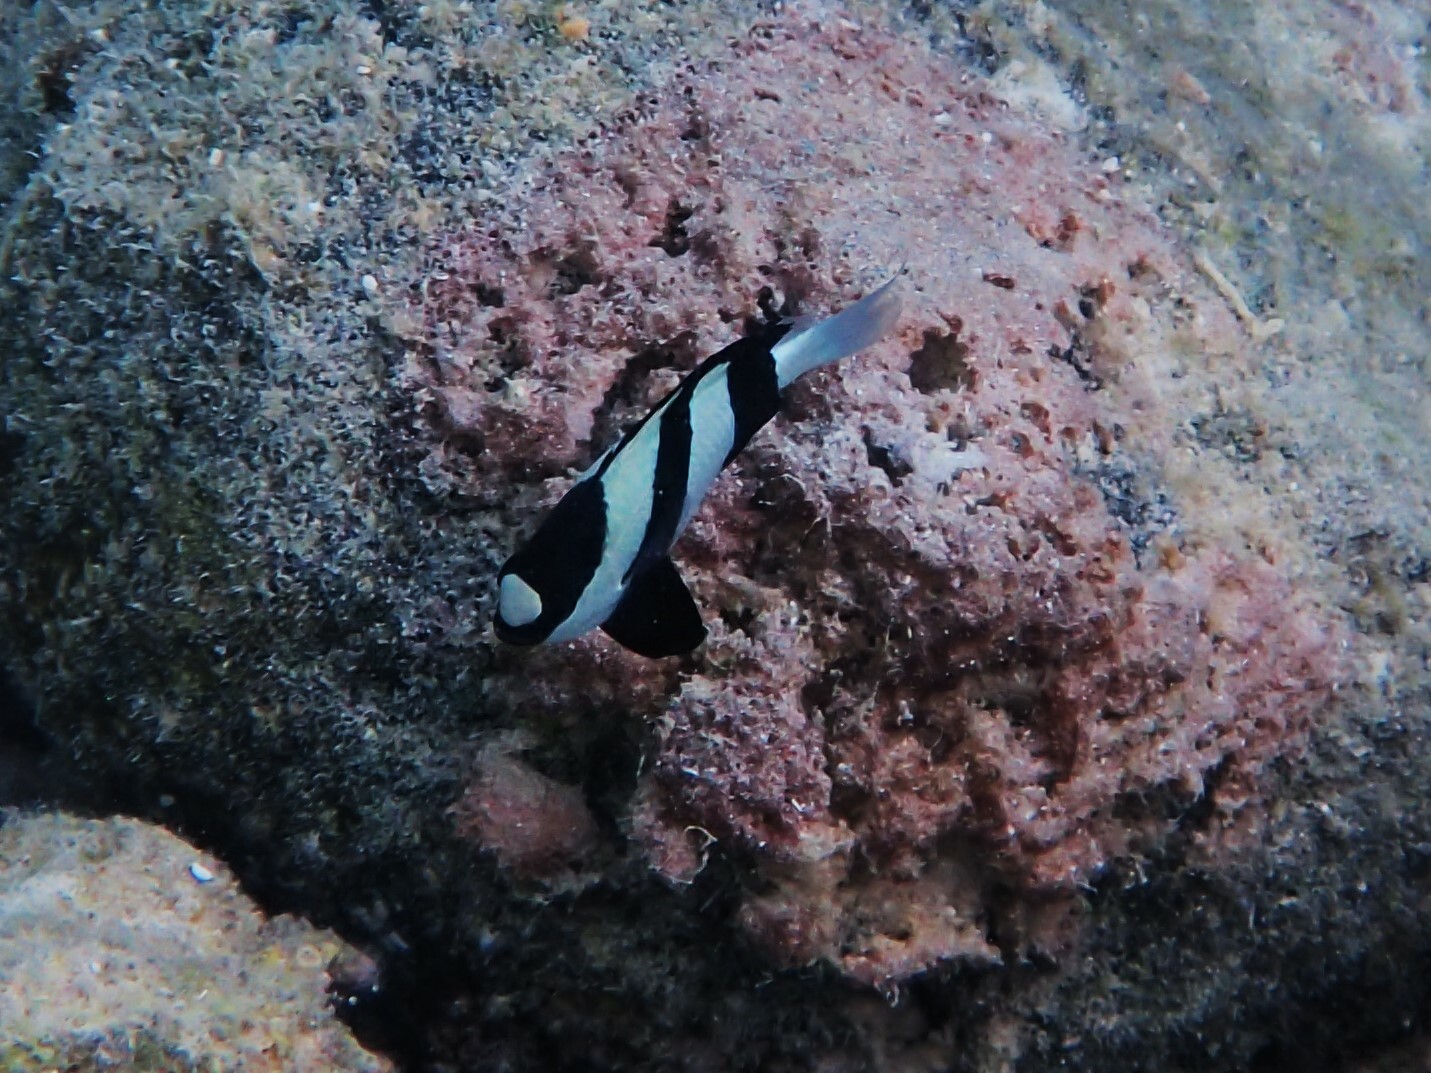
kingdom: Animalia
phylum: Chordata
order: Perciformes
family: Pomacentridae
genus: Dascyllus
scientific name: Dascyllus aruanus
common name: Humbug dascyllus
